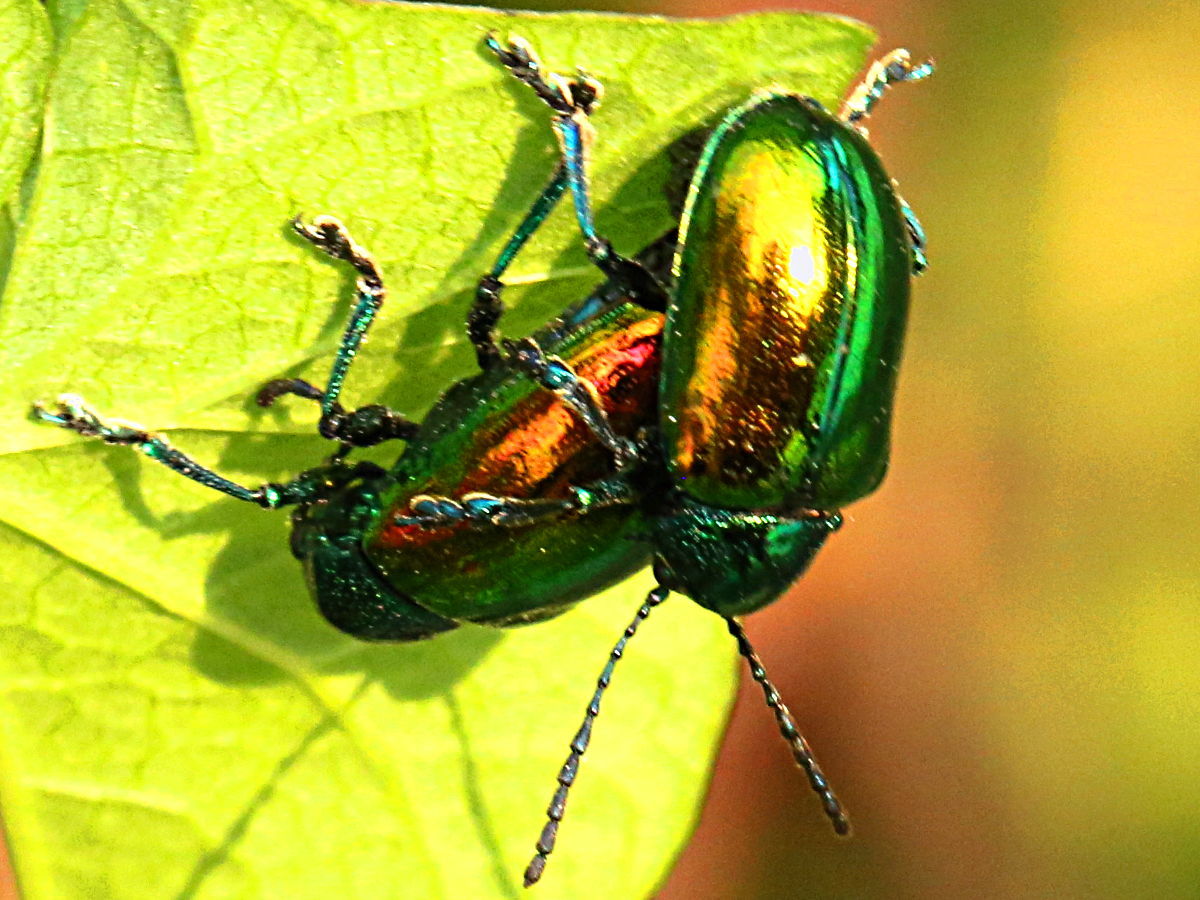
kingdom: Animalia
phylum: Arthropoda
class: Insecta
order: Coleoptera
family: Chrysomelidae
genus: Chrysochus
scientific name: Chrysochus auratus
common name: Dogbane leaf beetle
